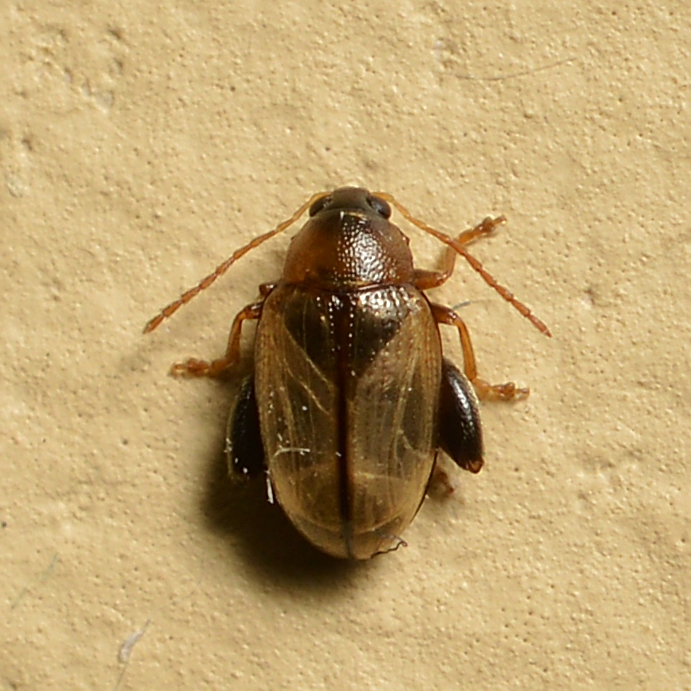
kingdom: Animalia
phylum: Arthropoda
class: Insecta
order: Coleoptera
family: Chrysomelidae
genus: Psylliodes
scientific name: Psylliodes affinis
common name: Potato flea beetle
